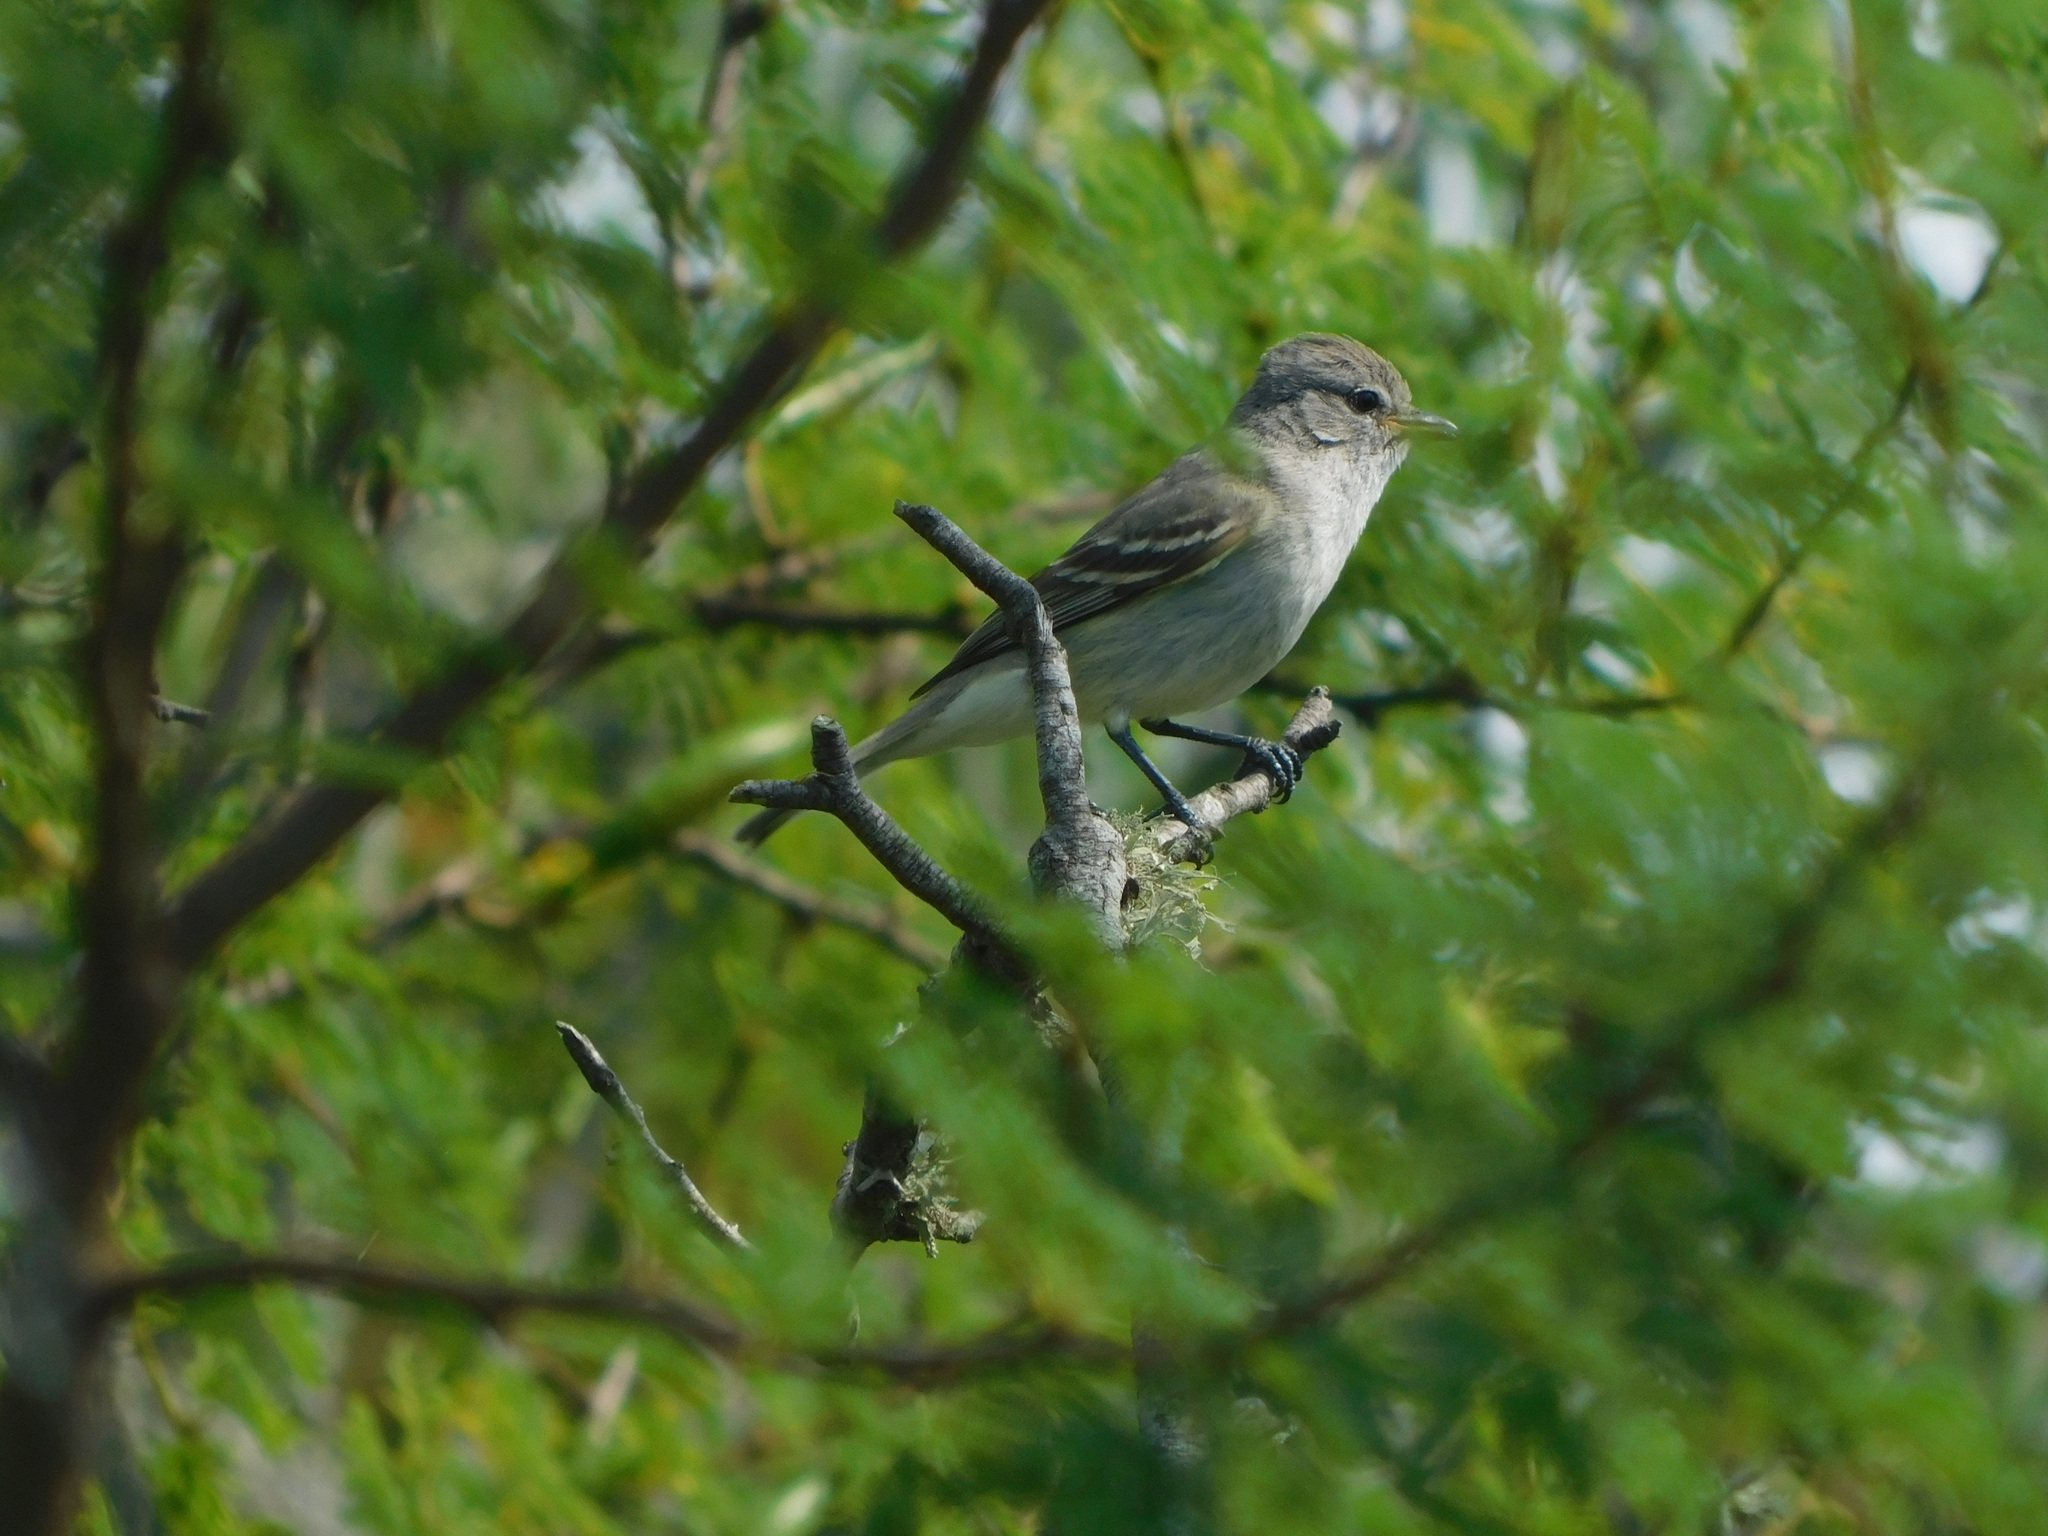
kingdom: Animalia
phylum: Chordata
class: Aves
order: Passeriformes
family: Tyrannidae
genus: Camptostoma
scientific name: Camptostoma obsoletum
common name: Southern beardless-tyrannulet
